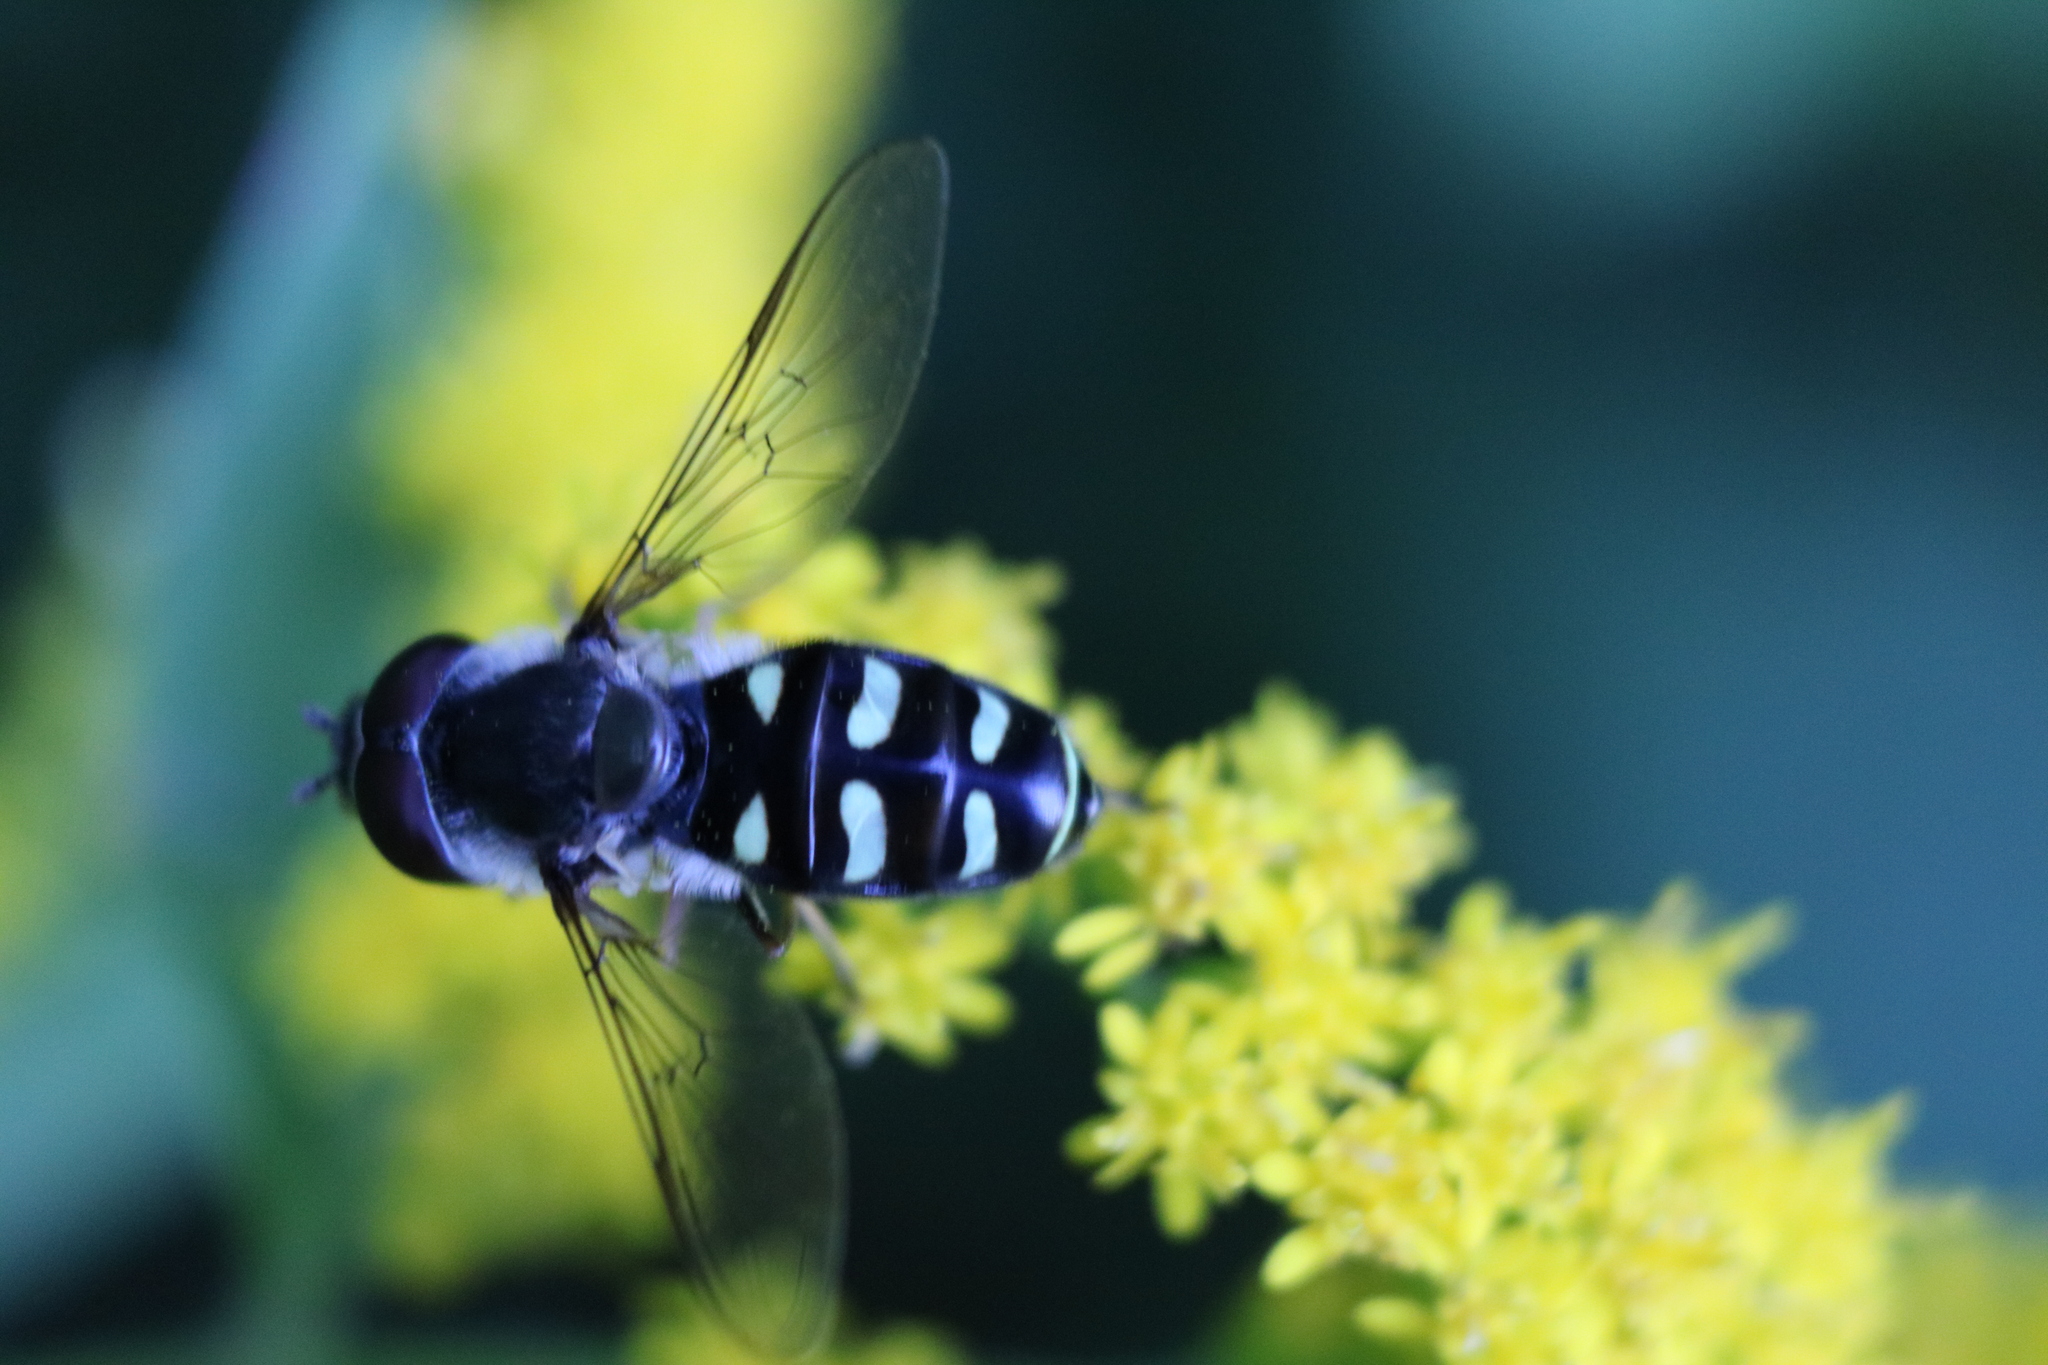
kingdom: Animalia
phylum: Arthropoda
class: Insecta
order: Diptera
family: Syrphidae
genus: Eupeodes
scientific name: Eupeodes perplexus
